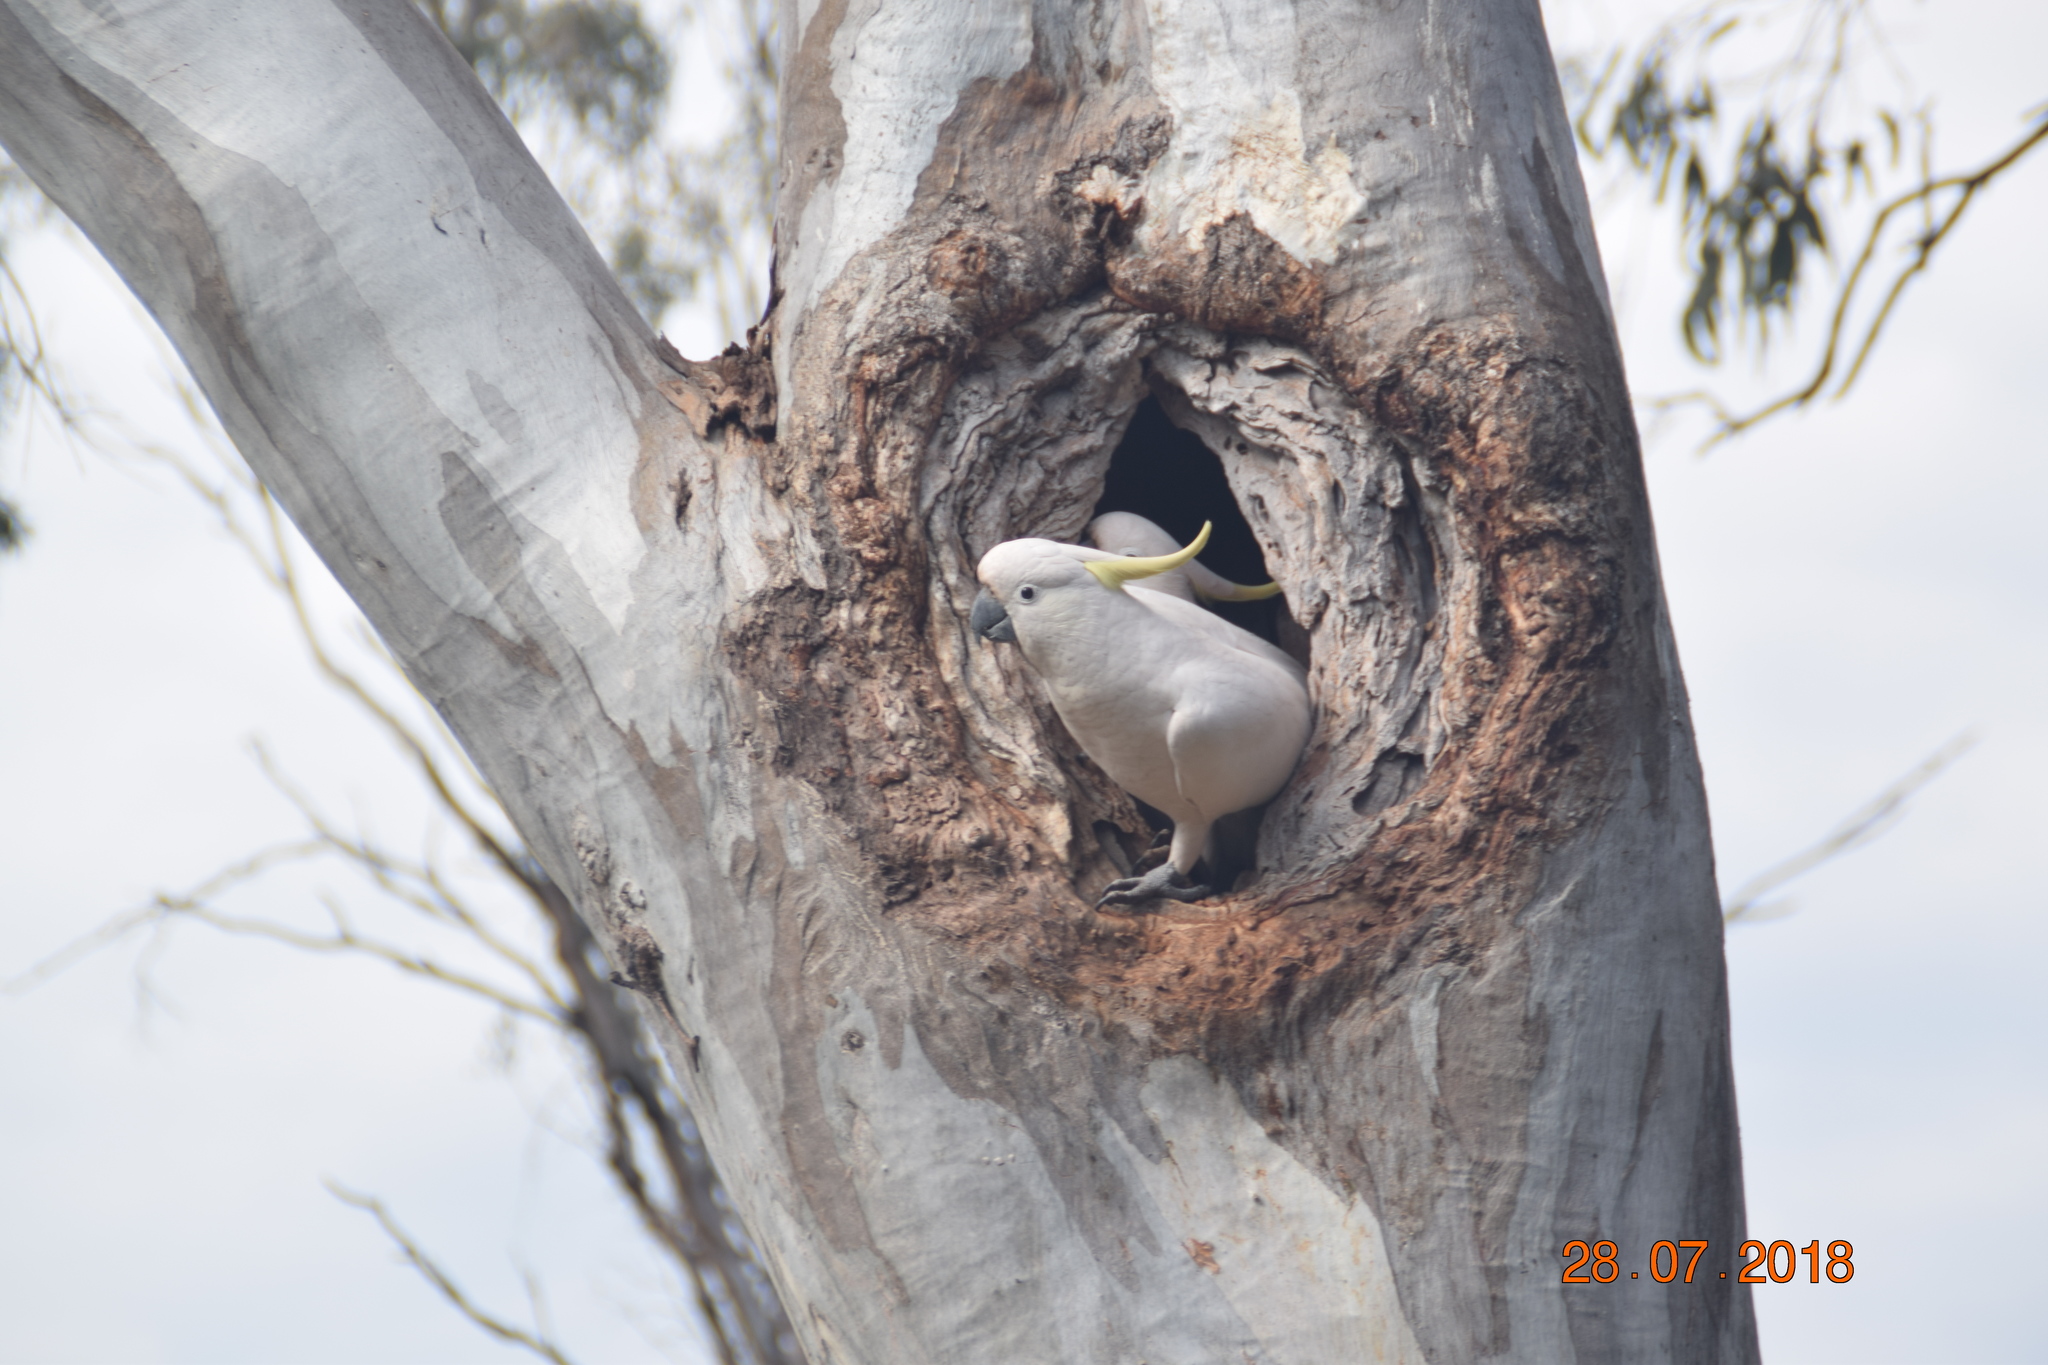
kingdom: Animalia
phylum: Chordata
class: Aves
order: Psittaciformes
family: Psittacidae
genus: Cacatua
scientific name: Cacatua galerita
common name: Sulphur-crested cockatoo
